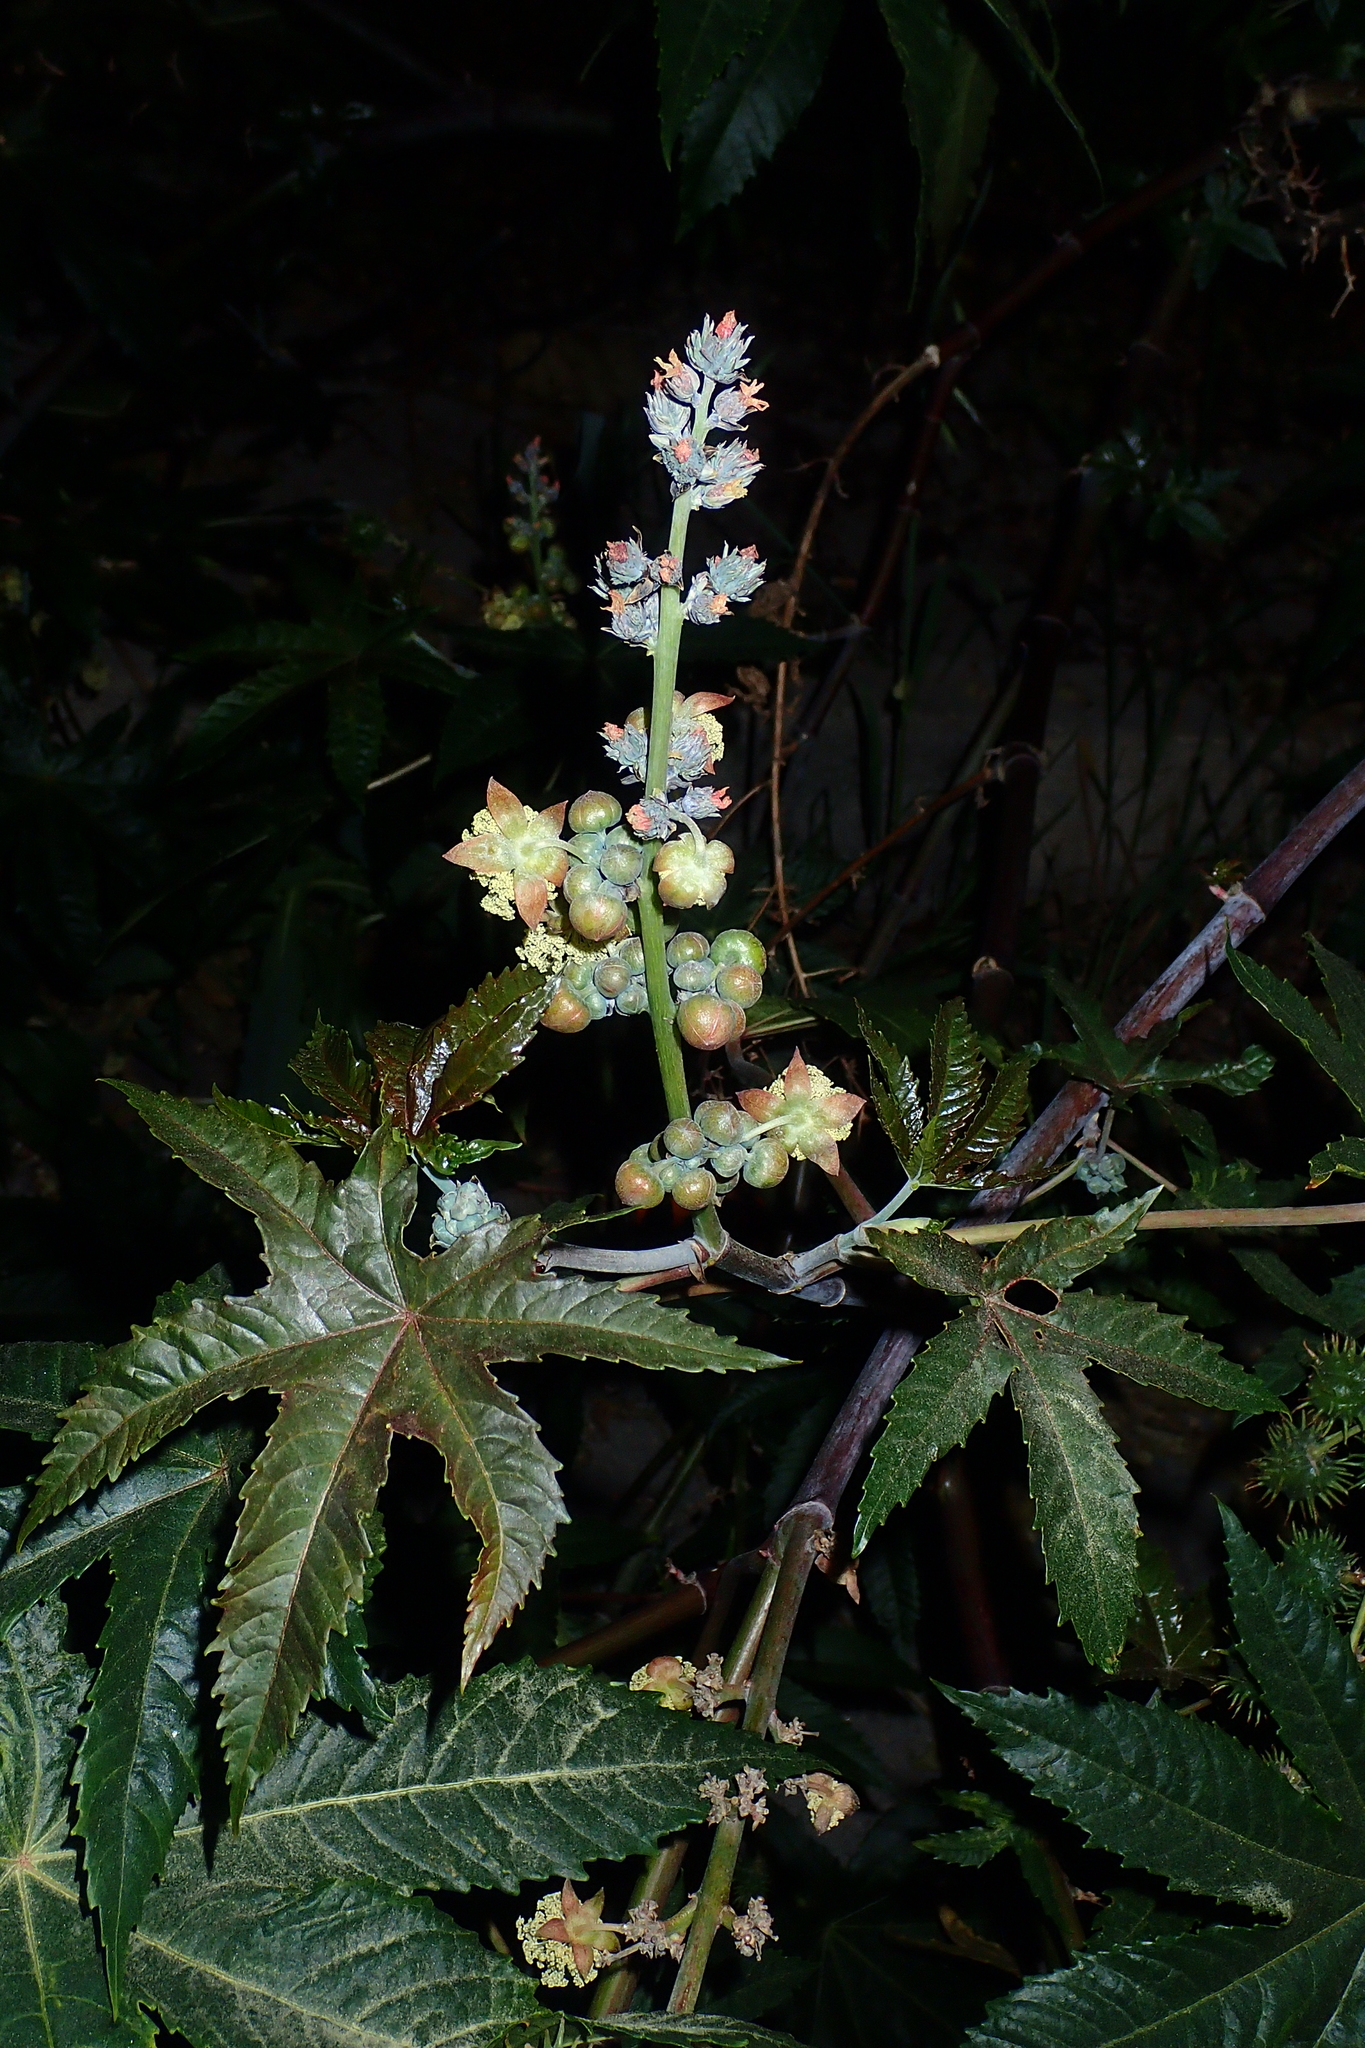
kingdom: Plantae
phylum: Tracheophyta
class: Magnoliopsida
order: Malpighiales
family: Euphorbiaceae
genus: Ricinus
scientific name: Ricinus communis
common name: Castor-oil-plant
